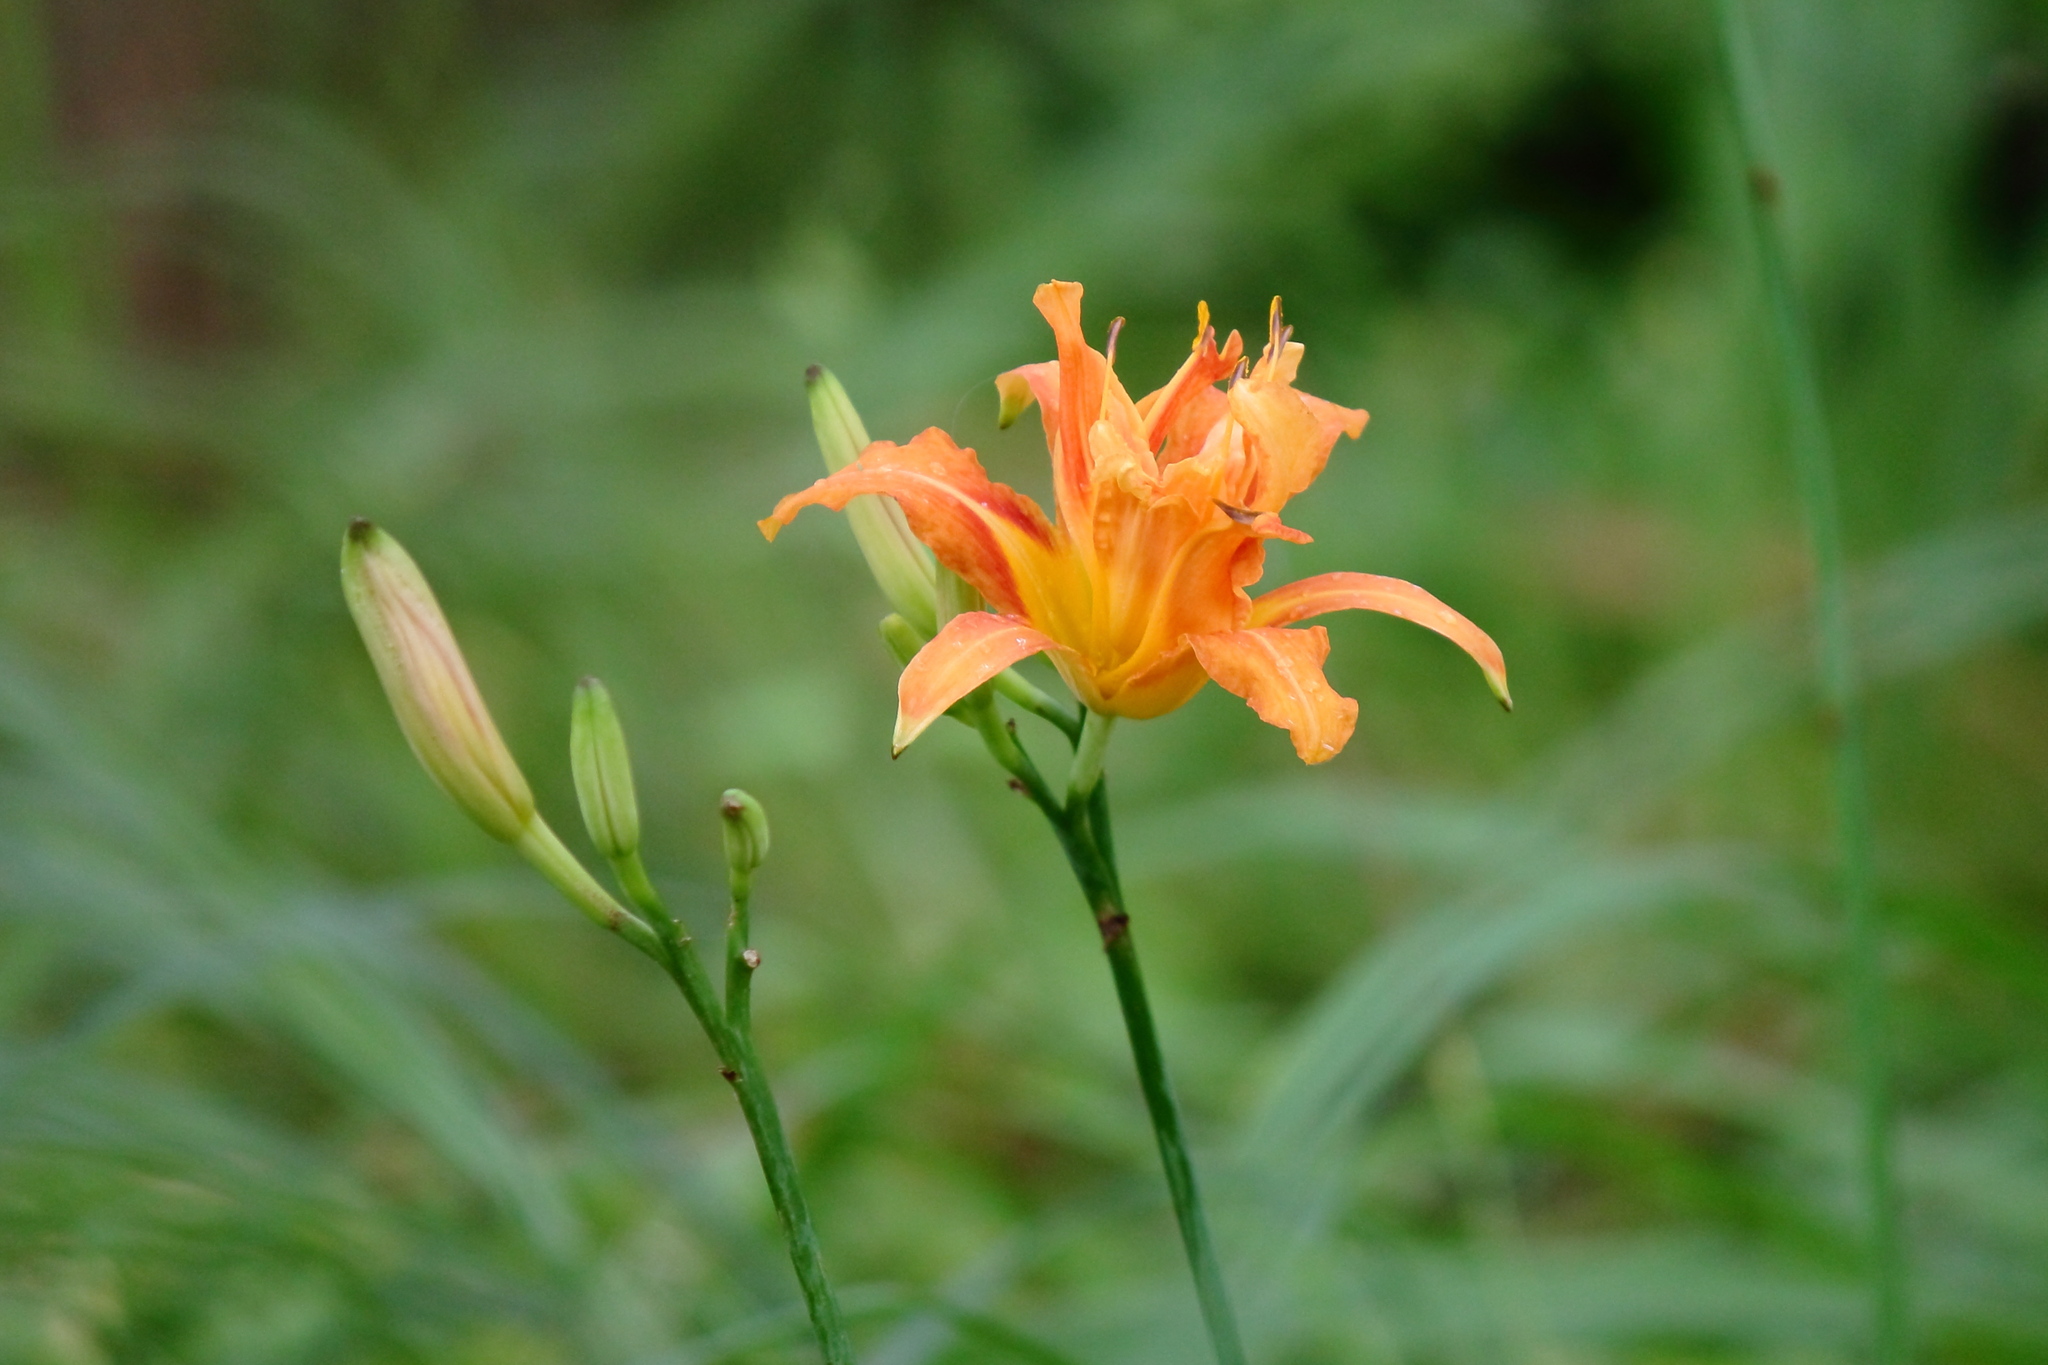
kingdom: Plantae
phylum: Tracheophyta
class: Liliopsida
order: Asparagales
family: Asphodelaceae
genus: Hemerocallis
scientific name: Hemerocallis fulva
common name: Orange day-lily
